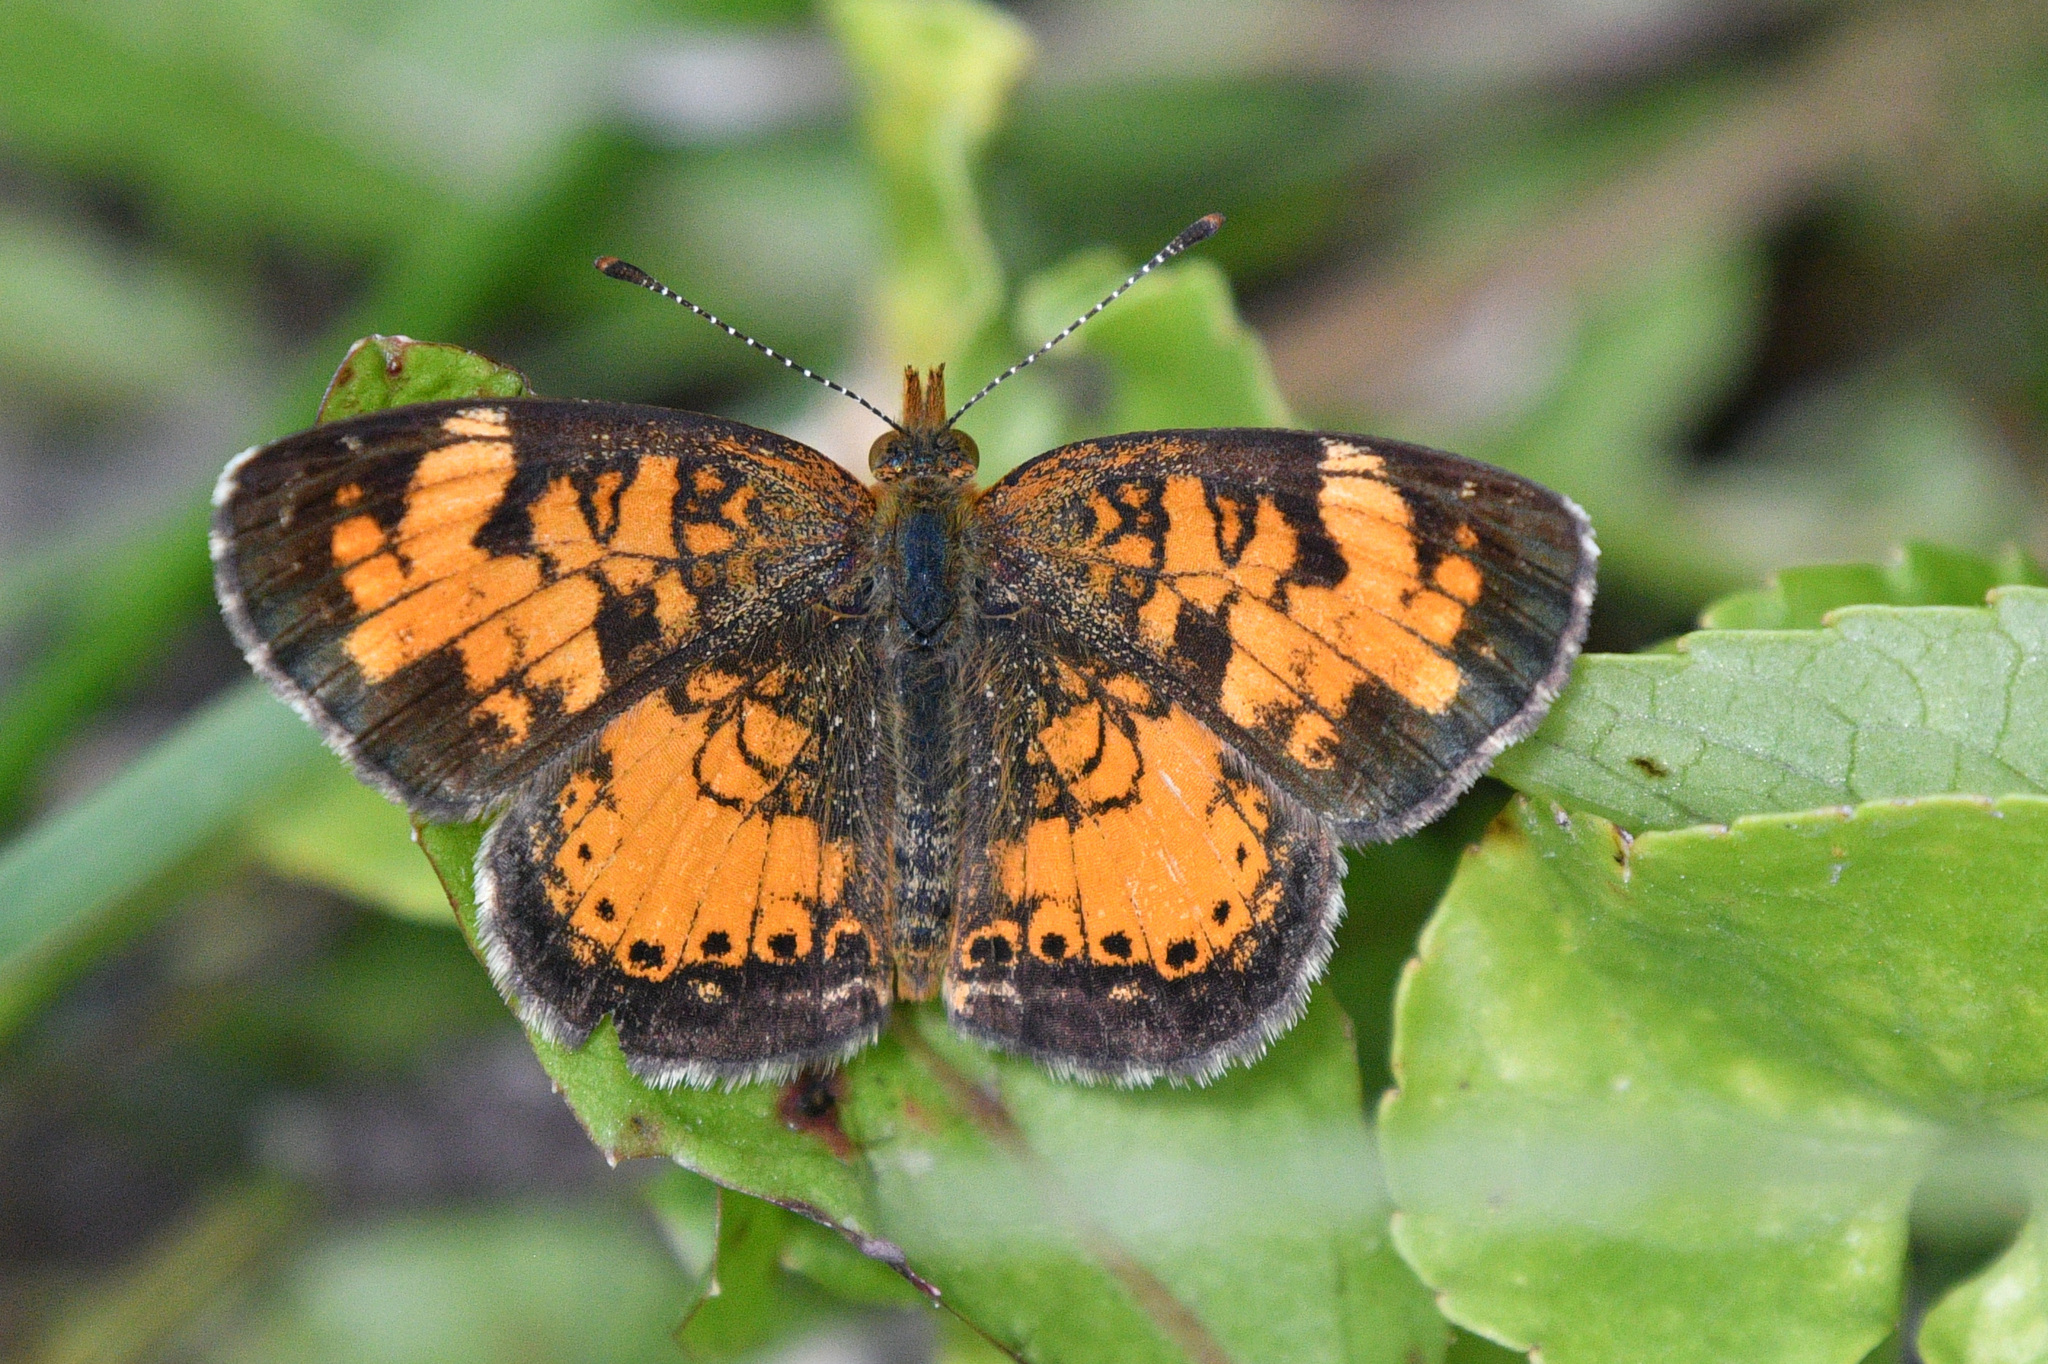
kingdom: Animalia
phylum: Arthropoda
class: Insecta
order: Lepidoptera
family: Nymphalidae
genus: Phyciodes
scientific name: Phyciodes tharos
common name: Pearl crescent
